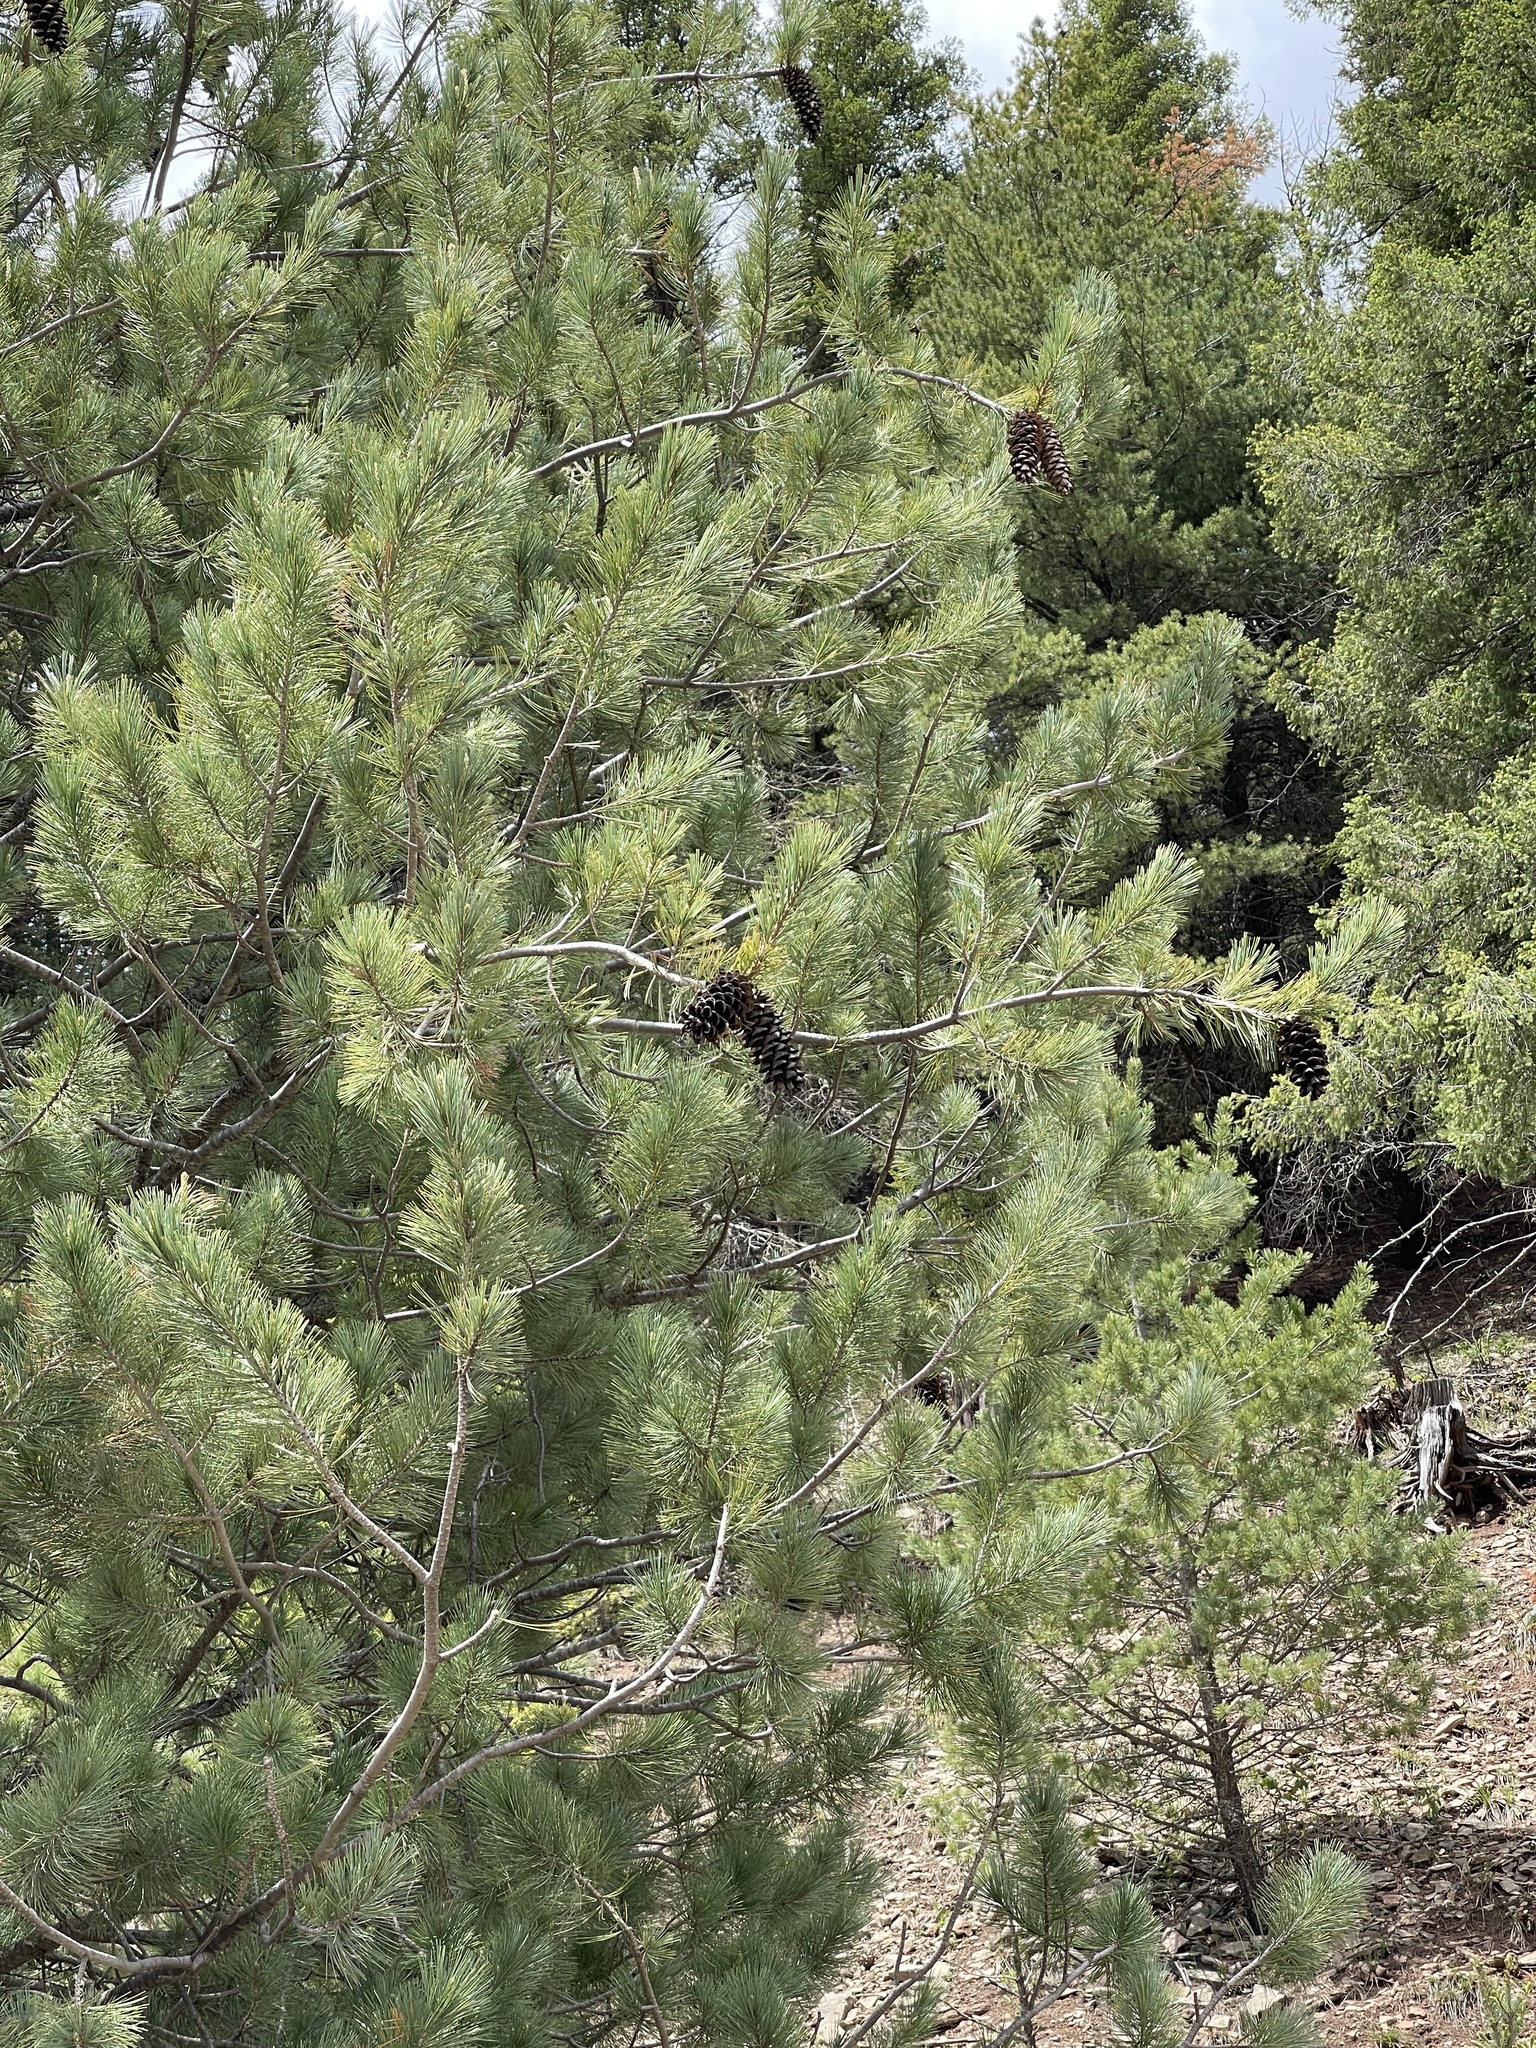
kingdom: Plantae
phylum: Tracheophyta
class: Pinopsida
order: Pinales
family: Pinaceae
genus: Pinus
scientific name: Pinus strobiformis
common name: Southwestern white pine
